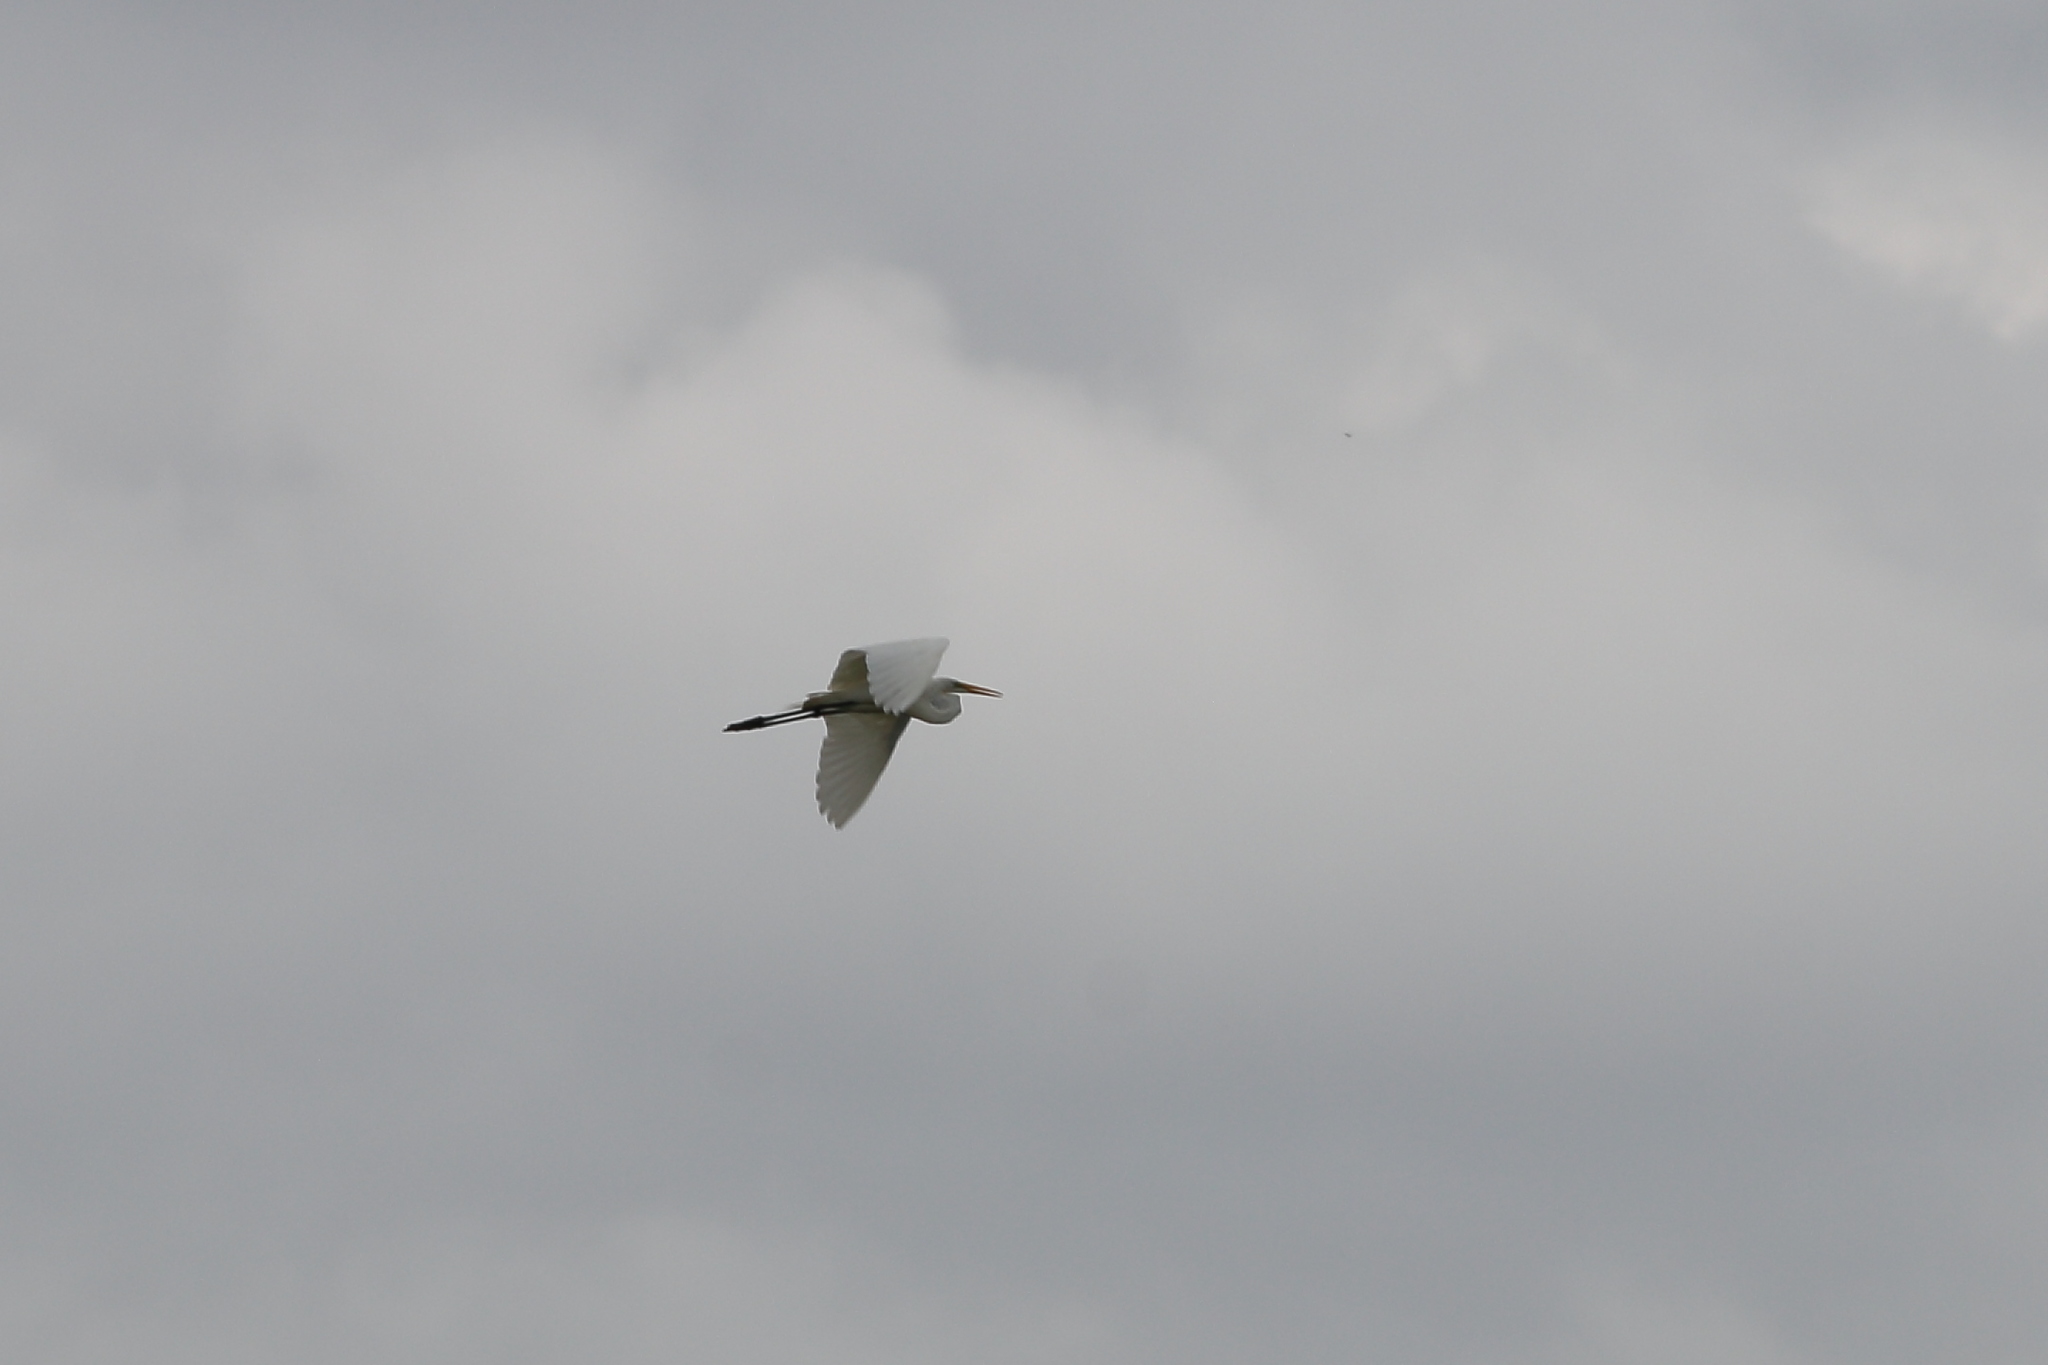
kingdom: Animalia
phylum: Chordata
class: Aves
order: Pelecaniformes
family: Ardeidae
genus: Ardea
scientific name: Ardea alba
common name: Great egret
